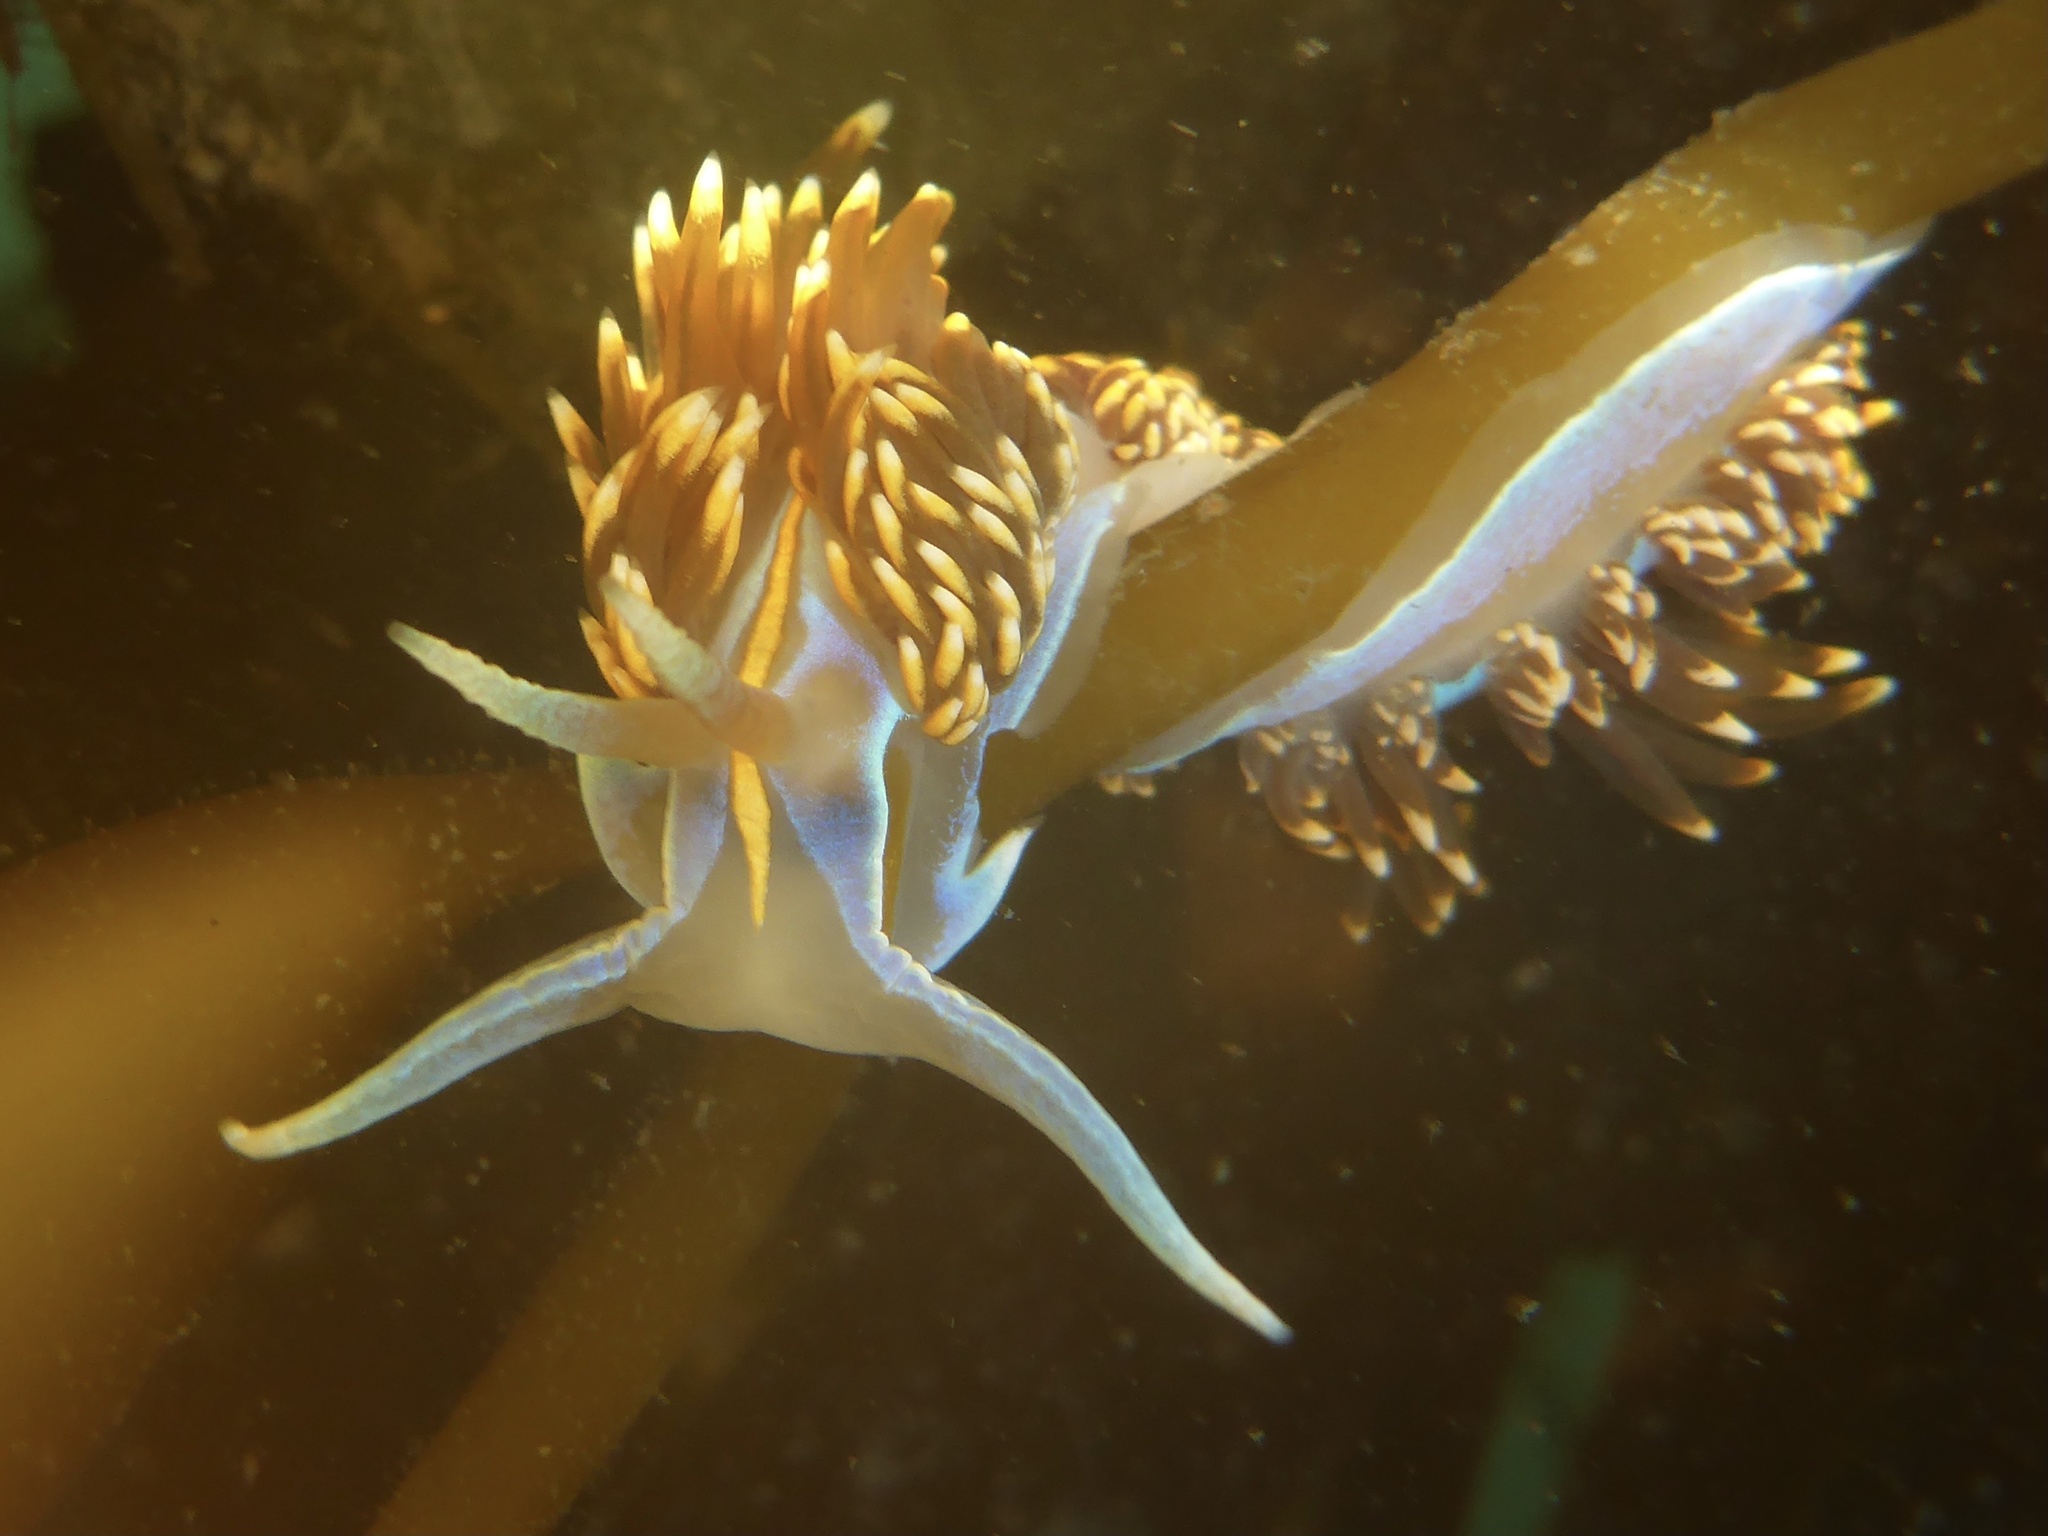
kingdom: Animalia
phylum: Mollusca
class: Gastropoda
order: Nudibranchia
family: Myrrhinidae
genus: Hermissenda
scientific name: Hermissenda opalescens
